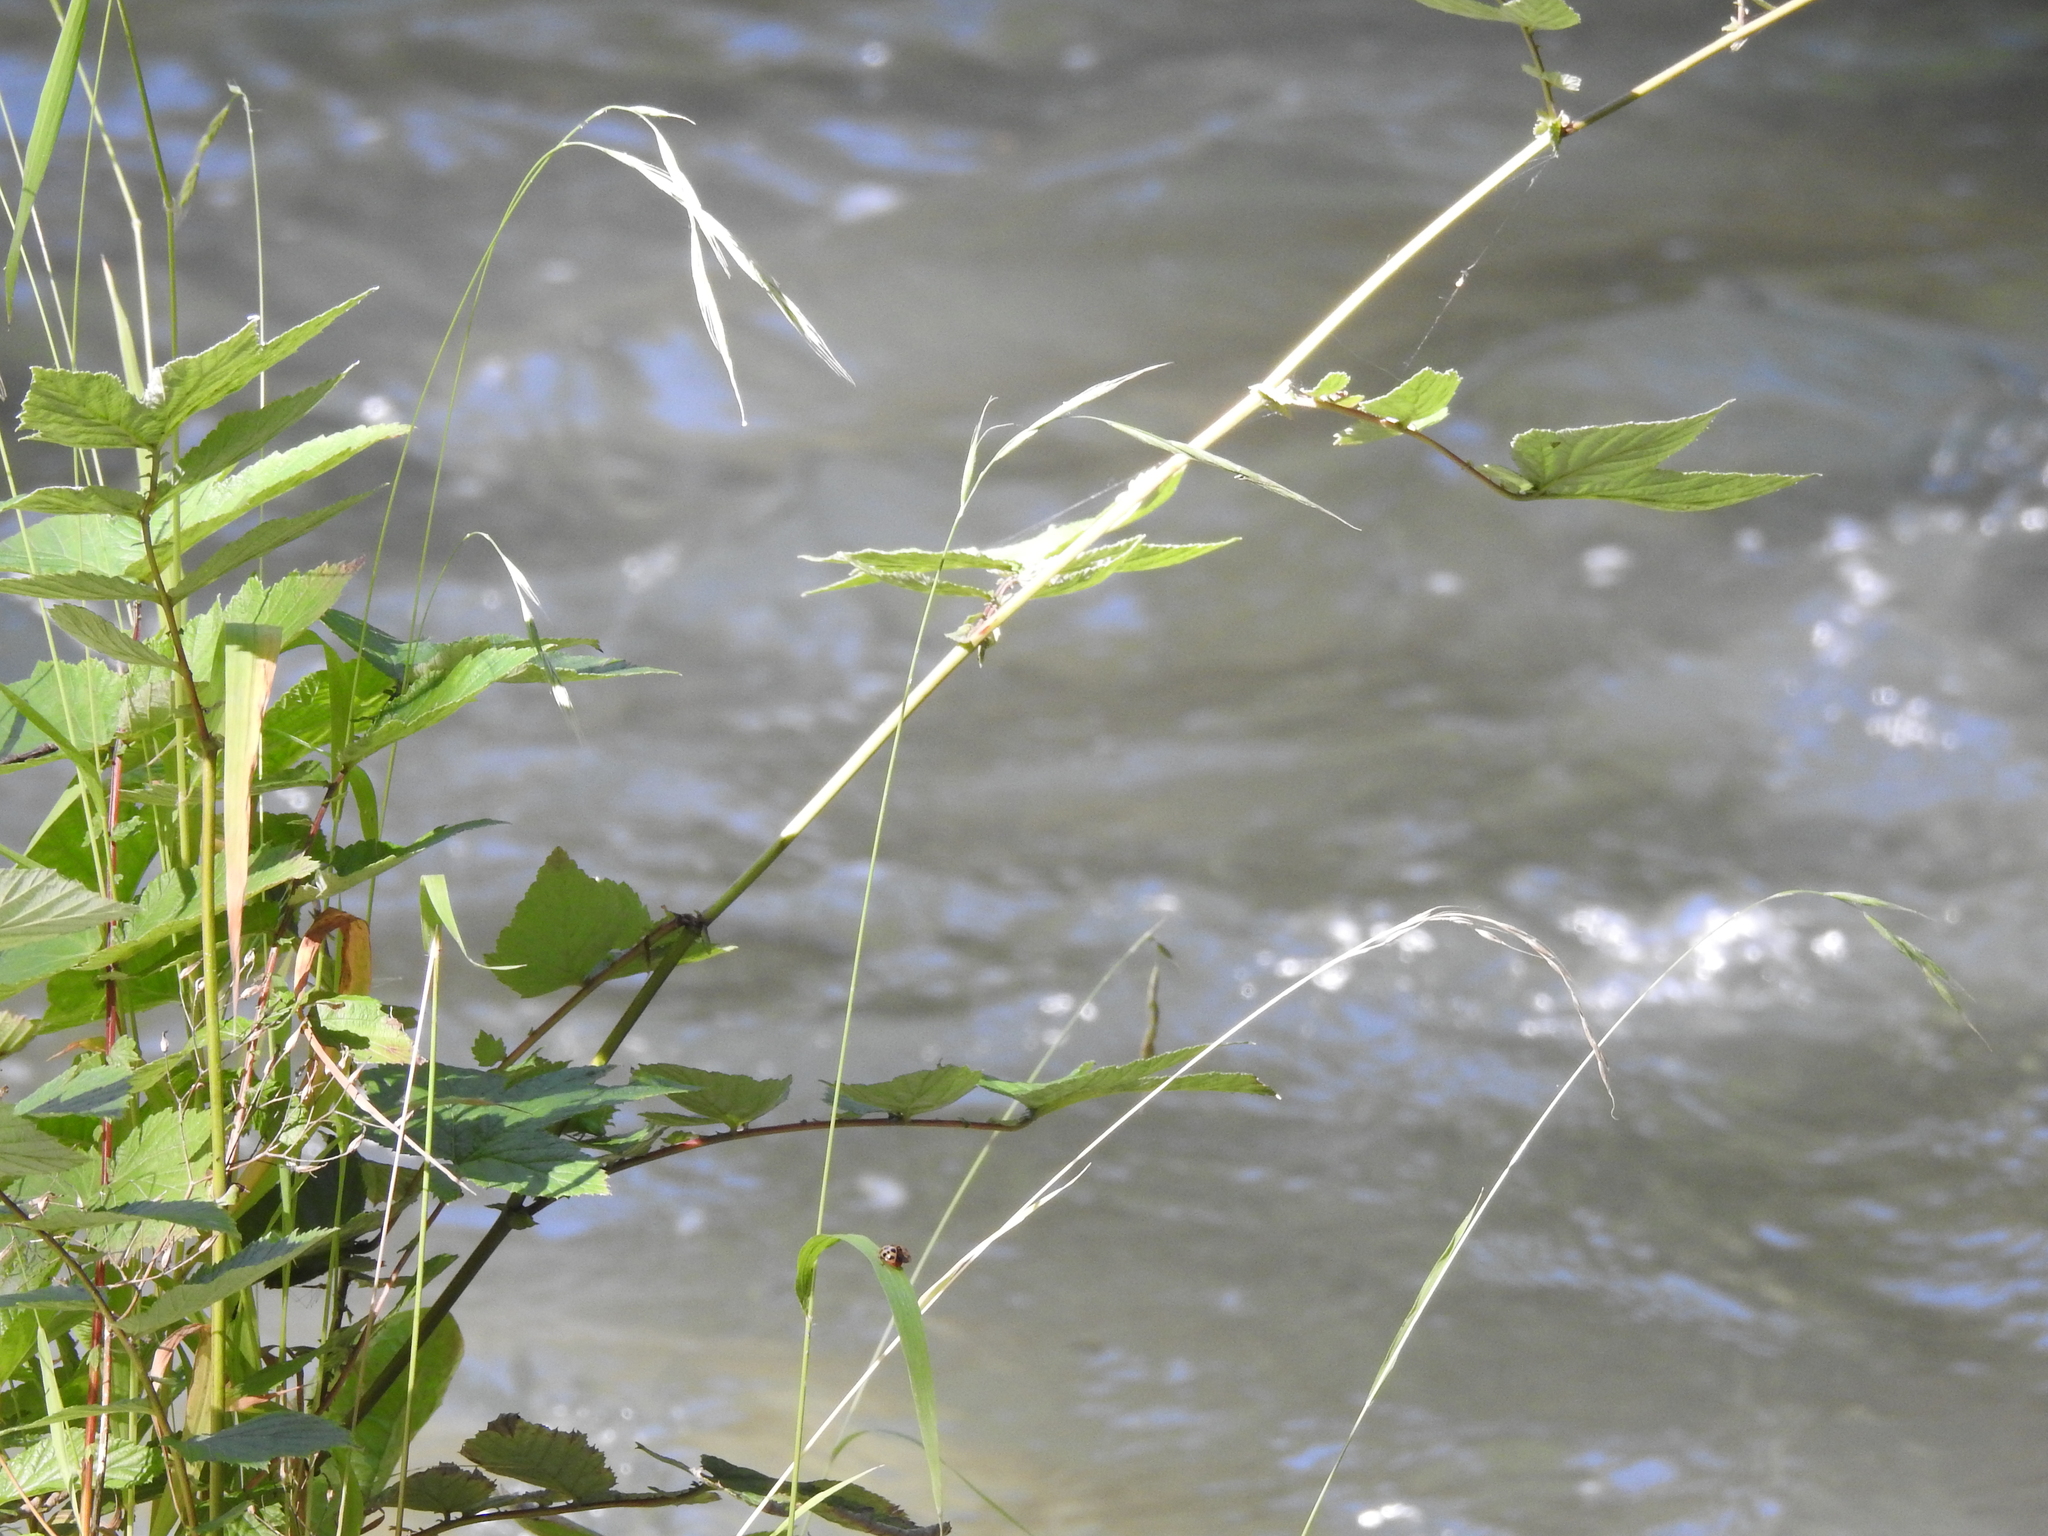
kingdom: Plantae
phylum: Tracheophyta
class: Magnoliopsida
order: Rosales
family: Rosaceae
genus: Filipendula
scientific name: Filipendula ulmaria
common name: Meadowsweet
